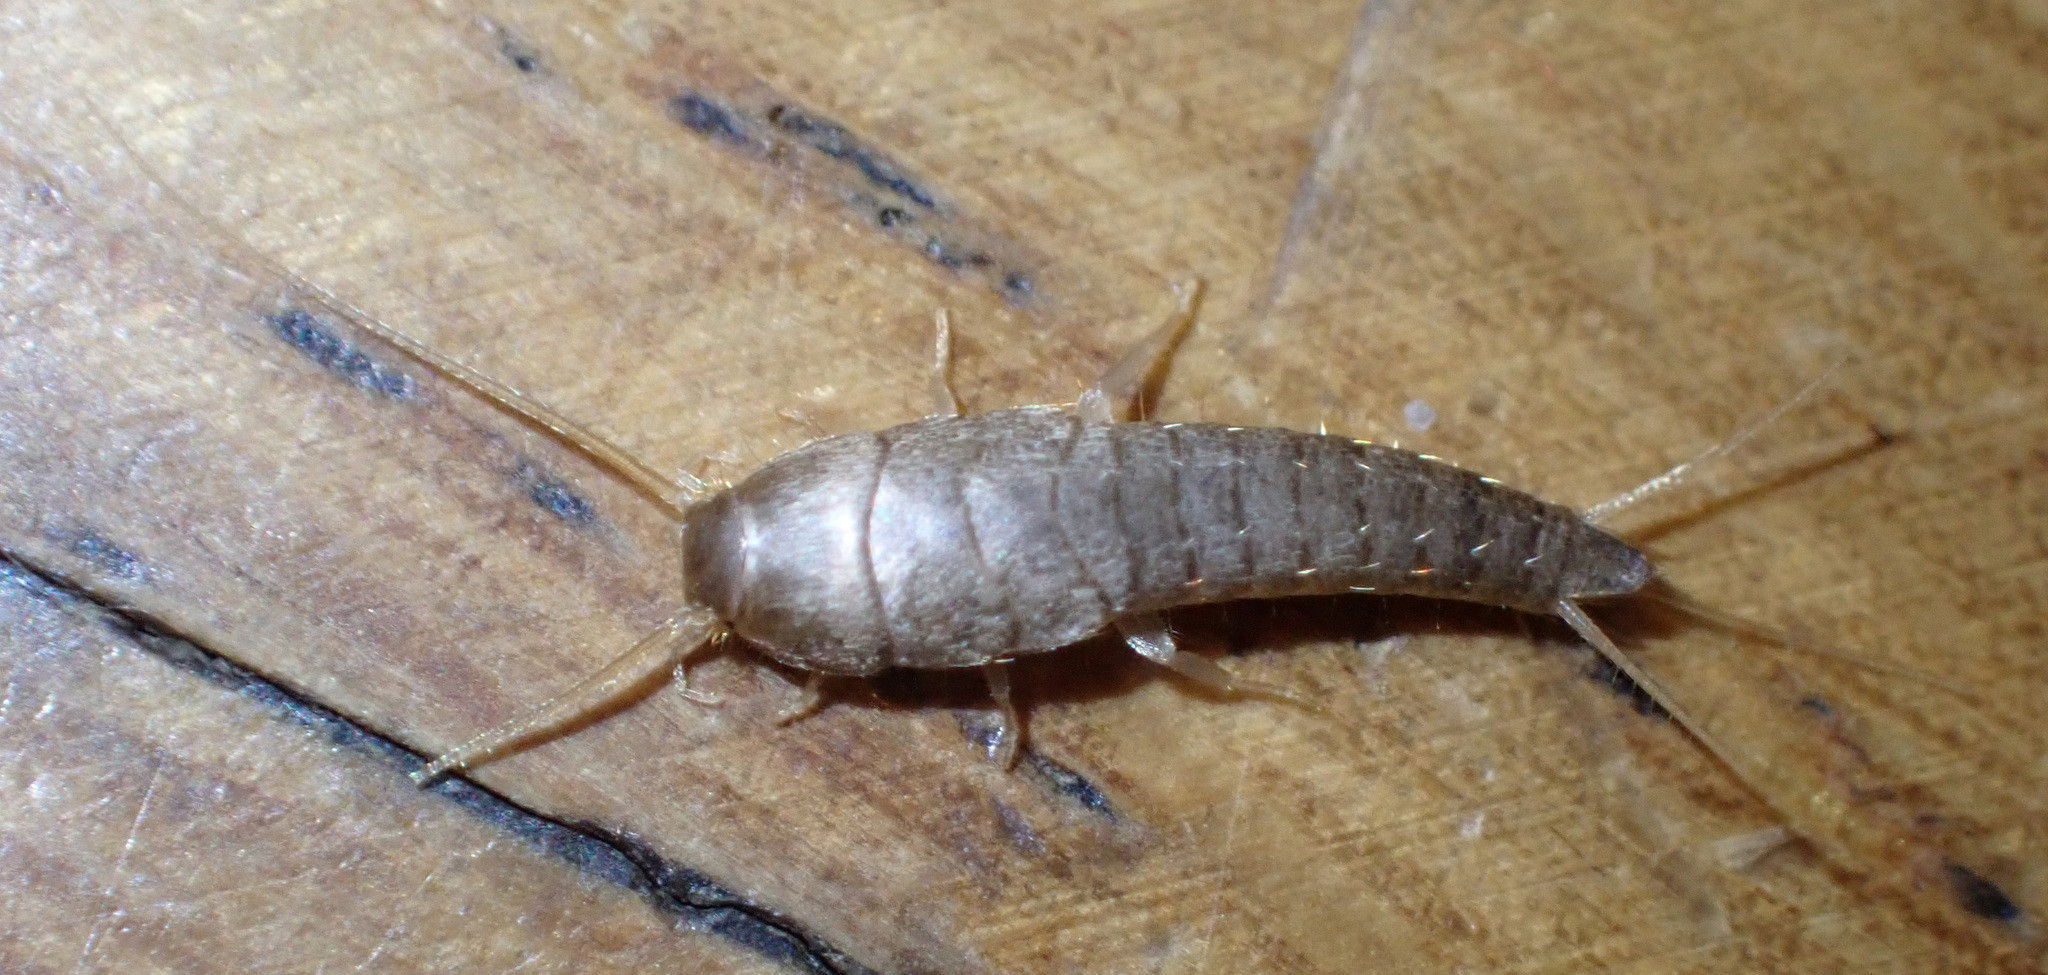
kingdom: Animalia
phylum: Arthropoda
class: Insecta
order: Zygentoma
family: Lepismatidae
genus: Lepisma
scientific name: Lepisma saccharinum
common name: Silverfish
